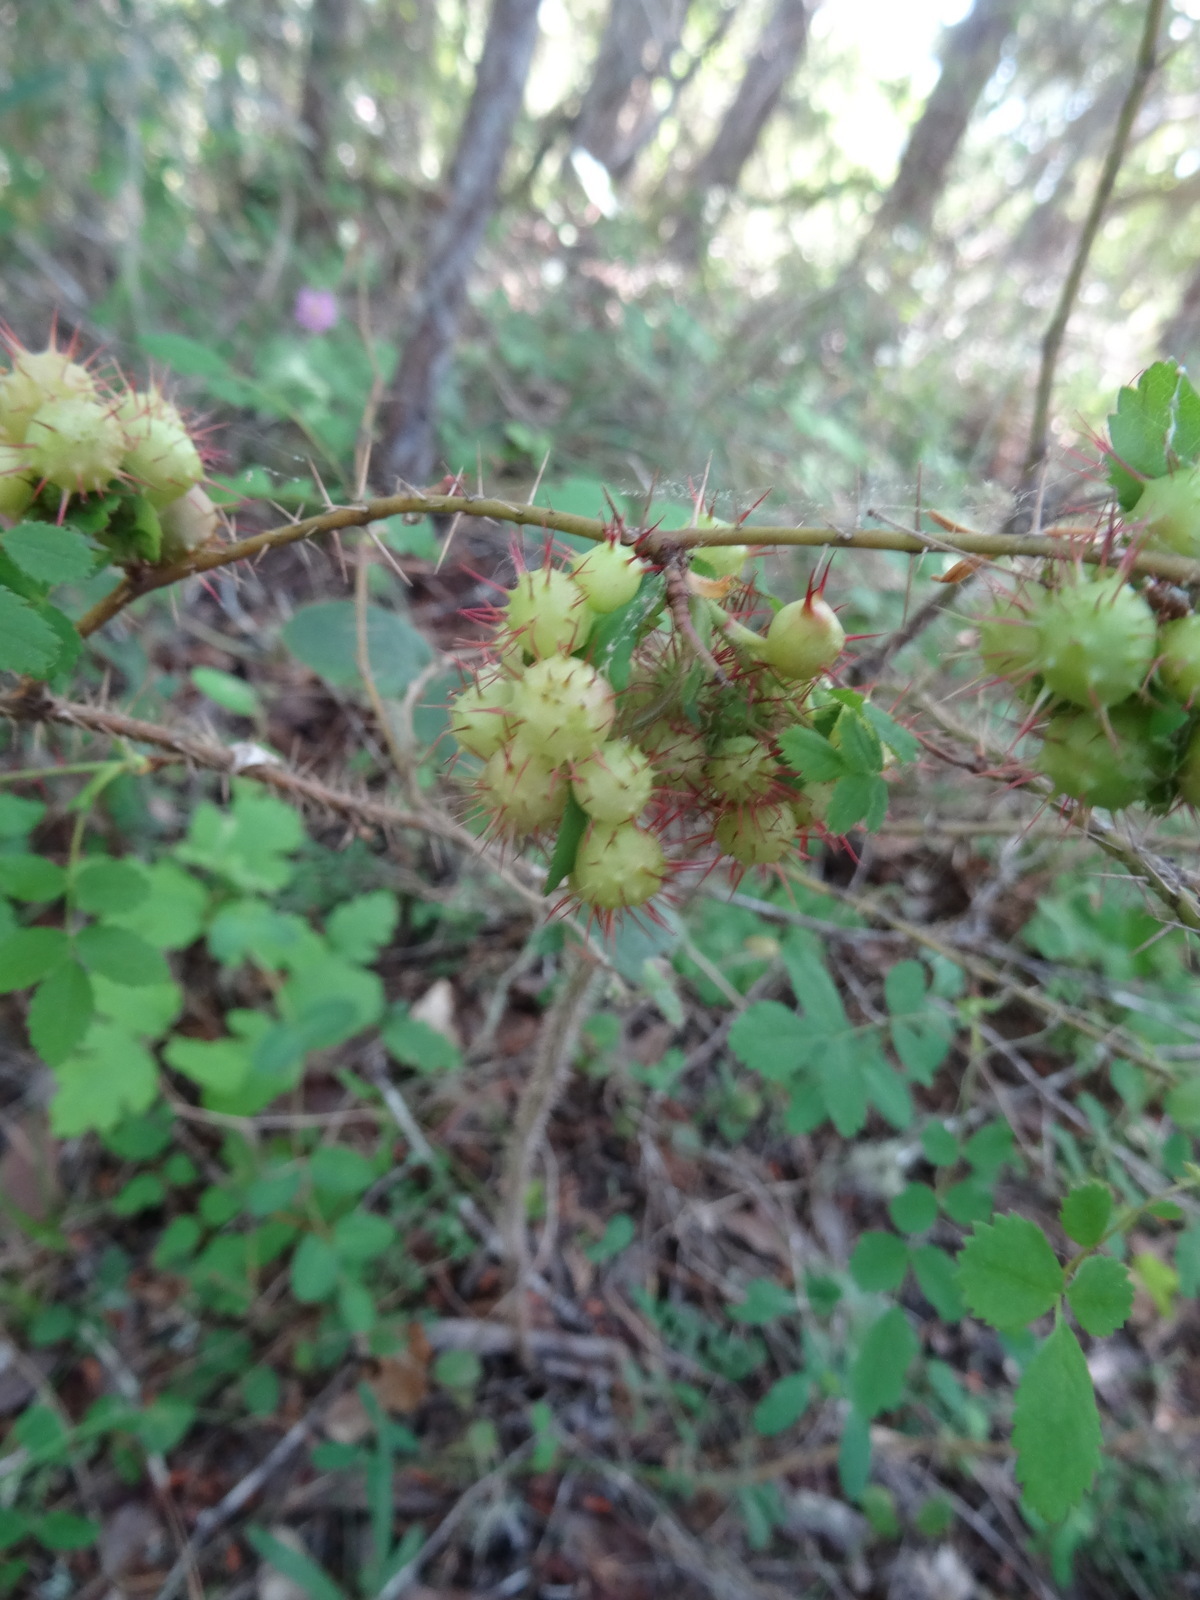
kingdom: Animalia
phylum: Arthropoda
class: Insecta
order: Hymenoptera
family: Cynipidae
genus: Diplolepis
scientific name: Diplolepis bicolor
